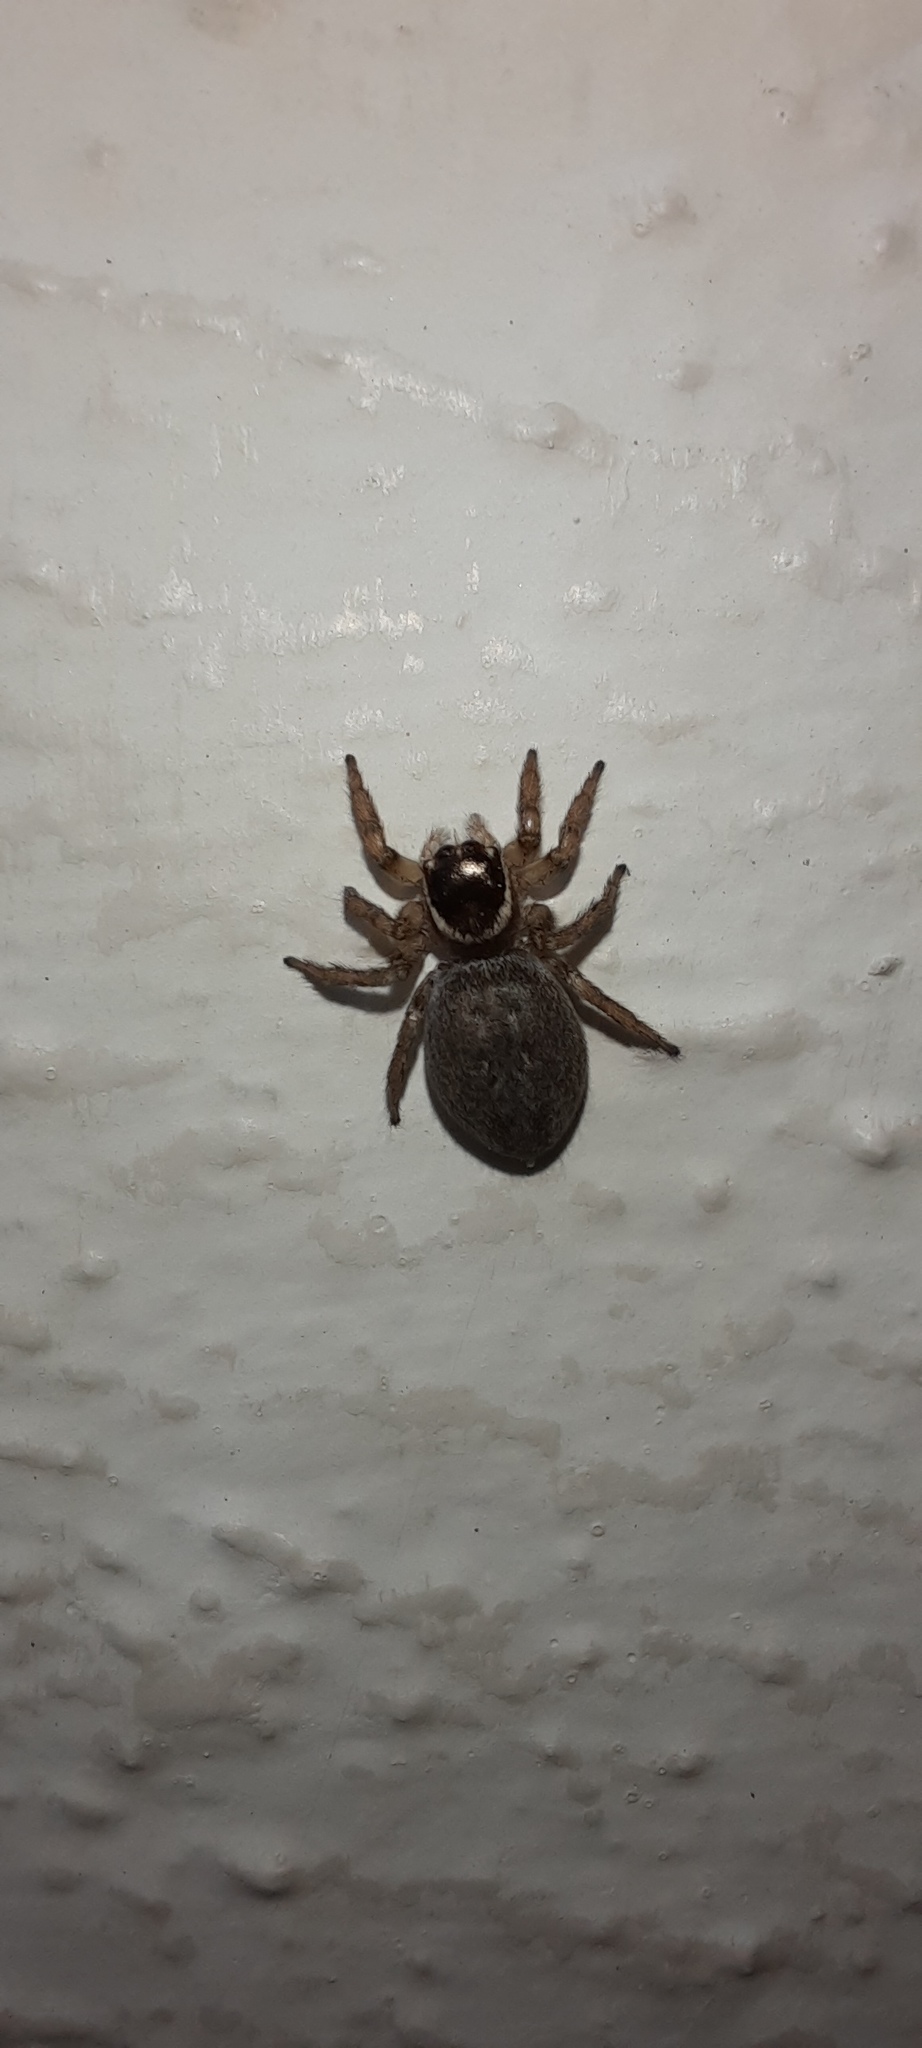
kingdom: Animalia
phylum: Arthropoda
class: Arachnida
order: Araneae
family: Salticidae
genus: Maratus
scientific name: Maratus griseus
